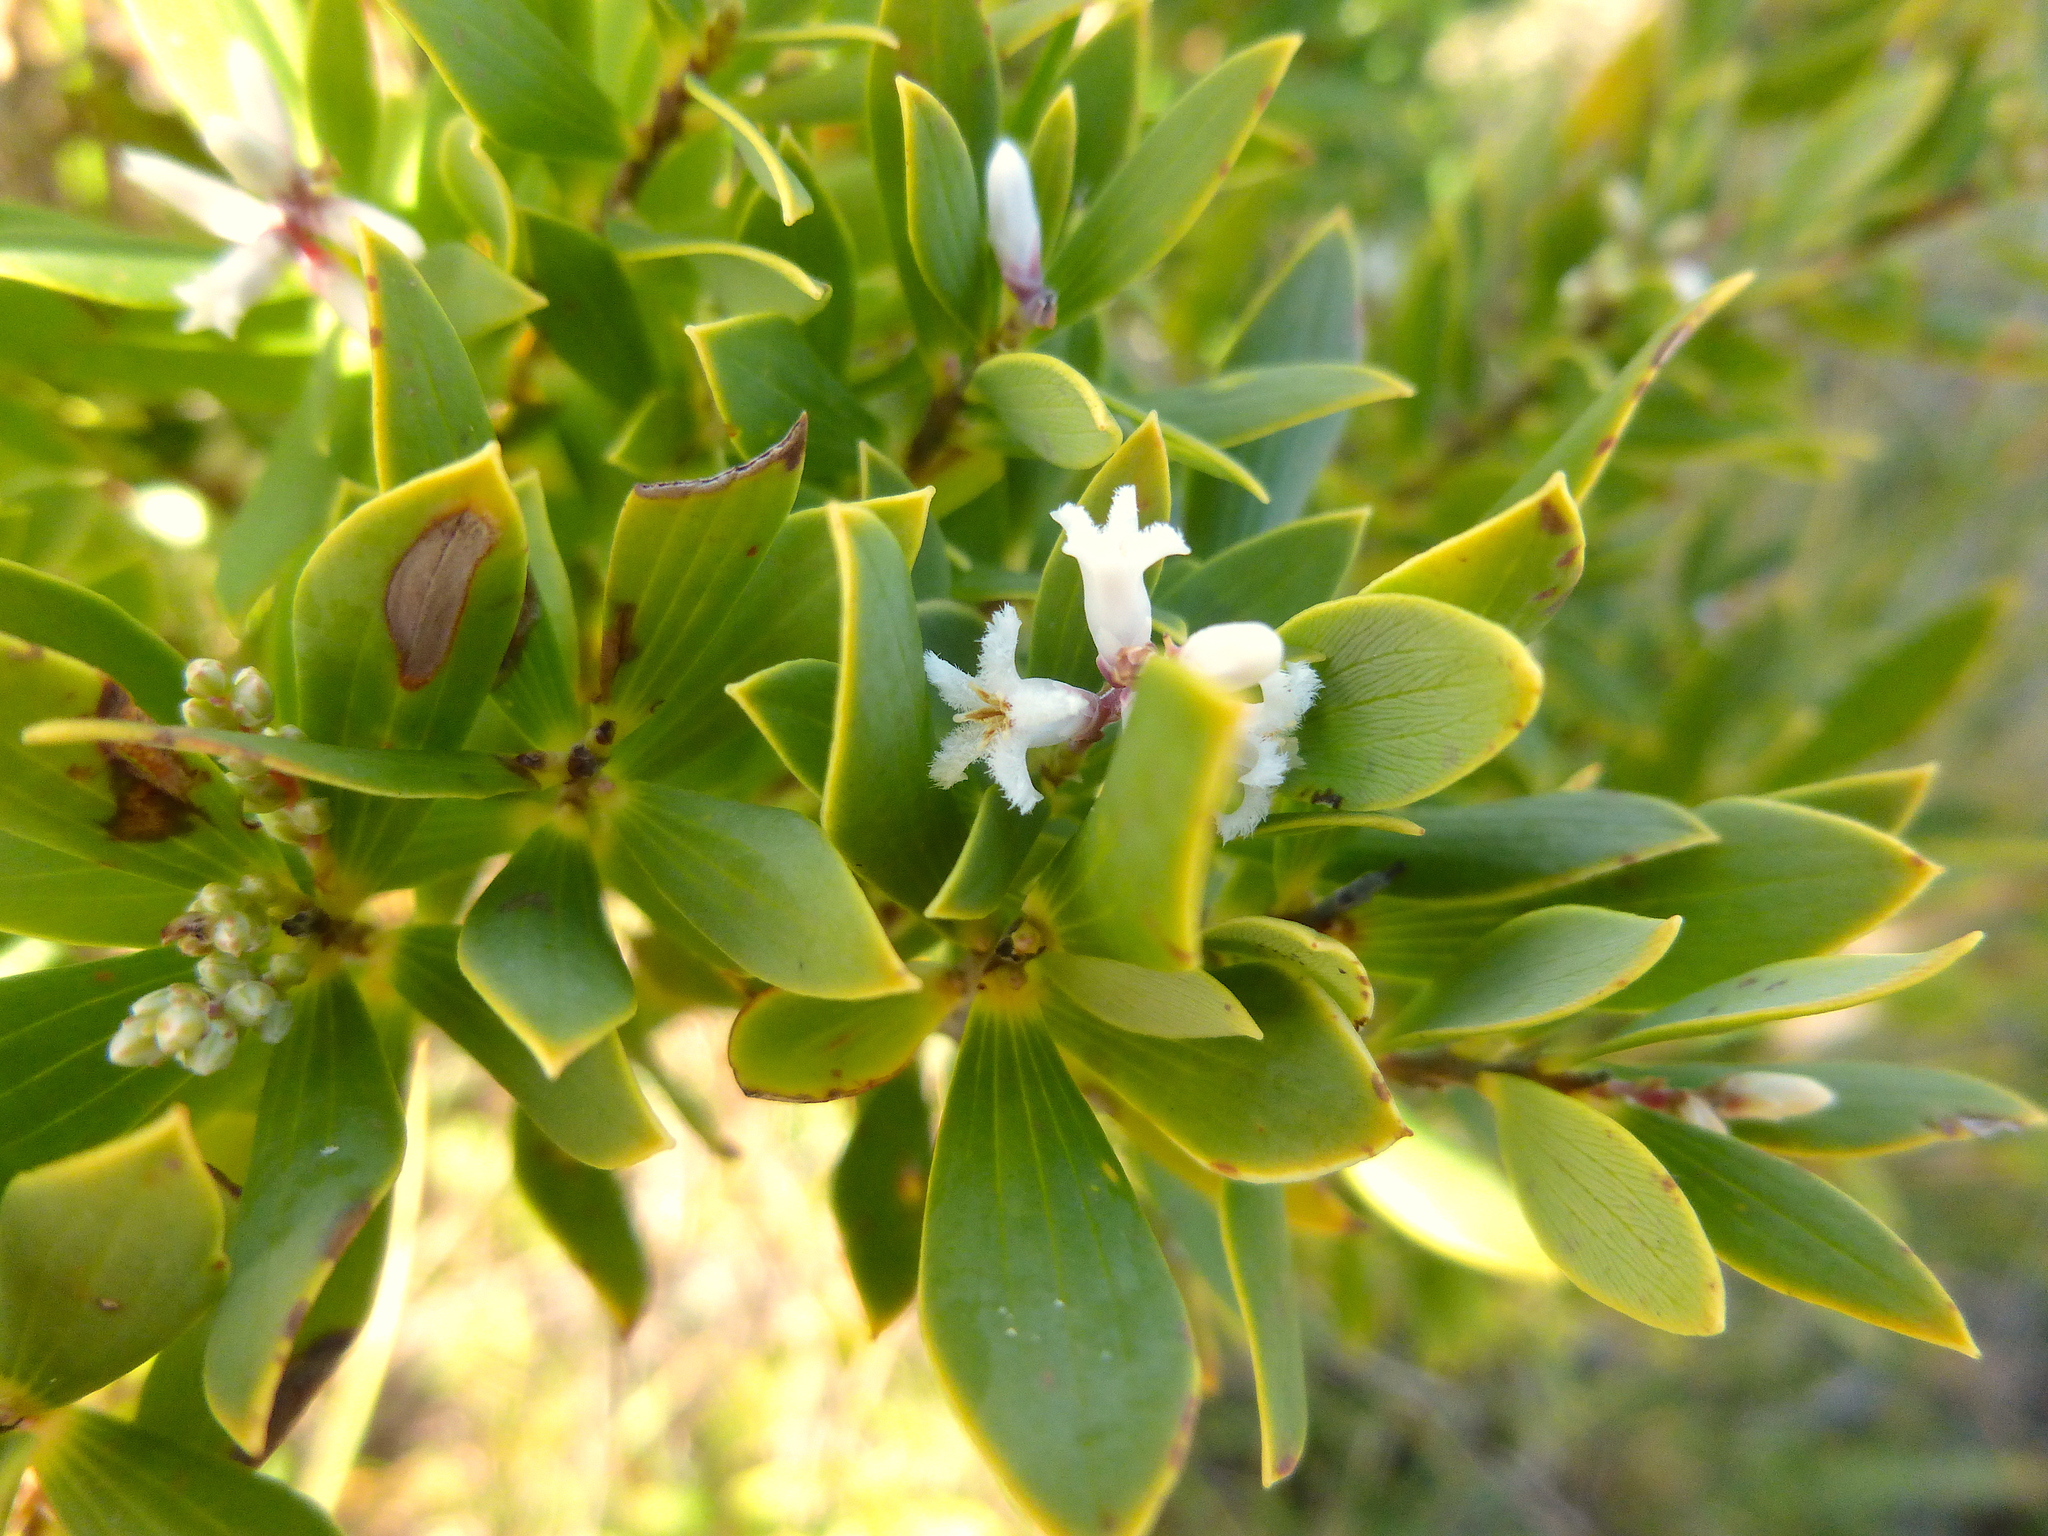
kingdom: Plantae
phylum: Tracheophyta
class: Magnoliopsida
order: Ericales
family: Ericaceae
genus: Leptecophylla
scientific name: Leptecophylla parvifolia
